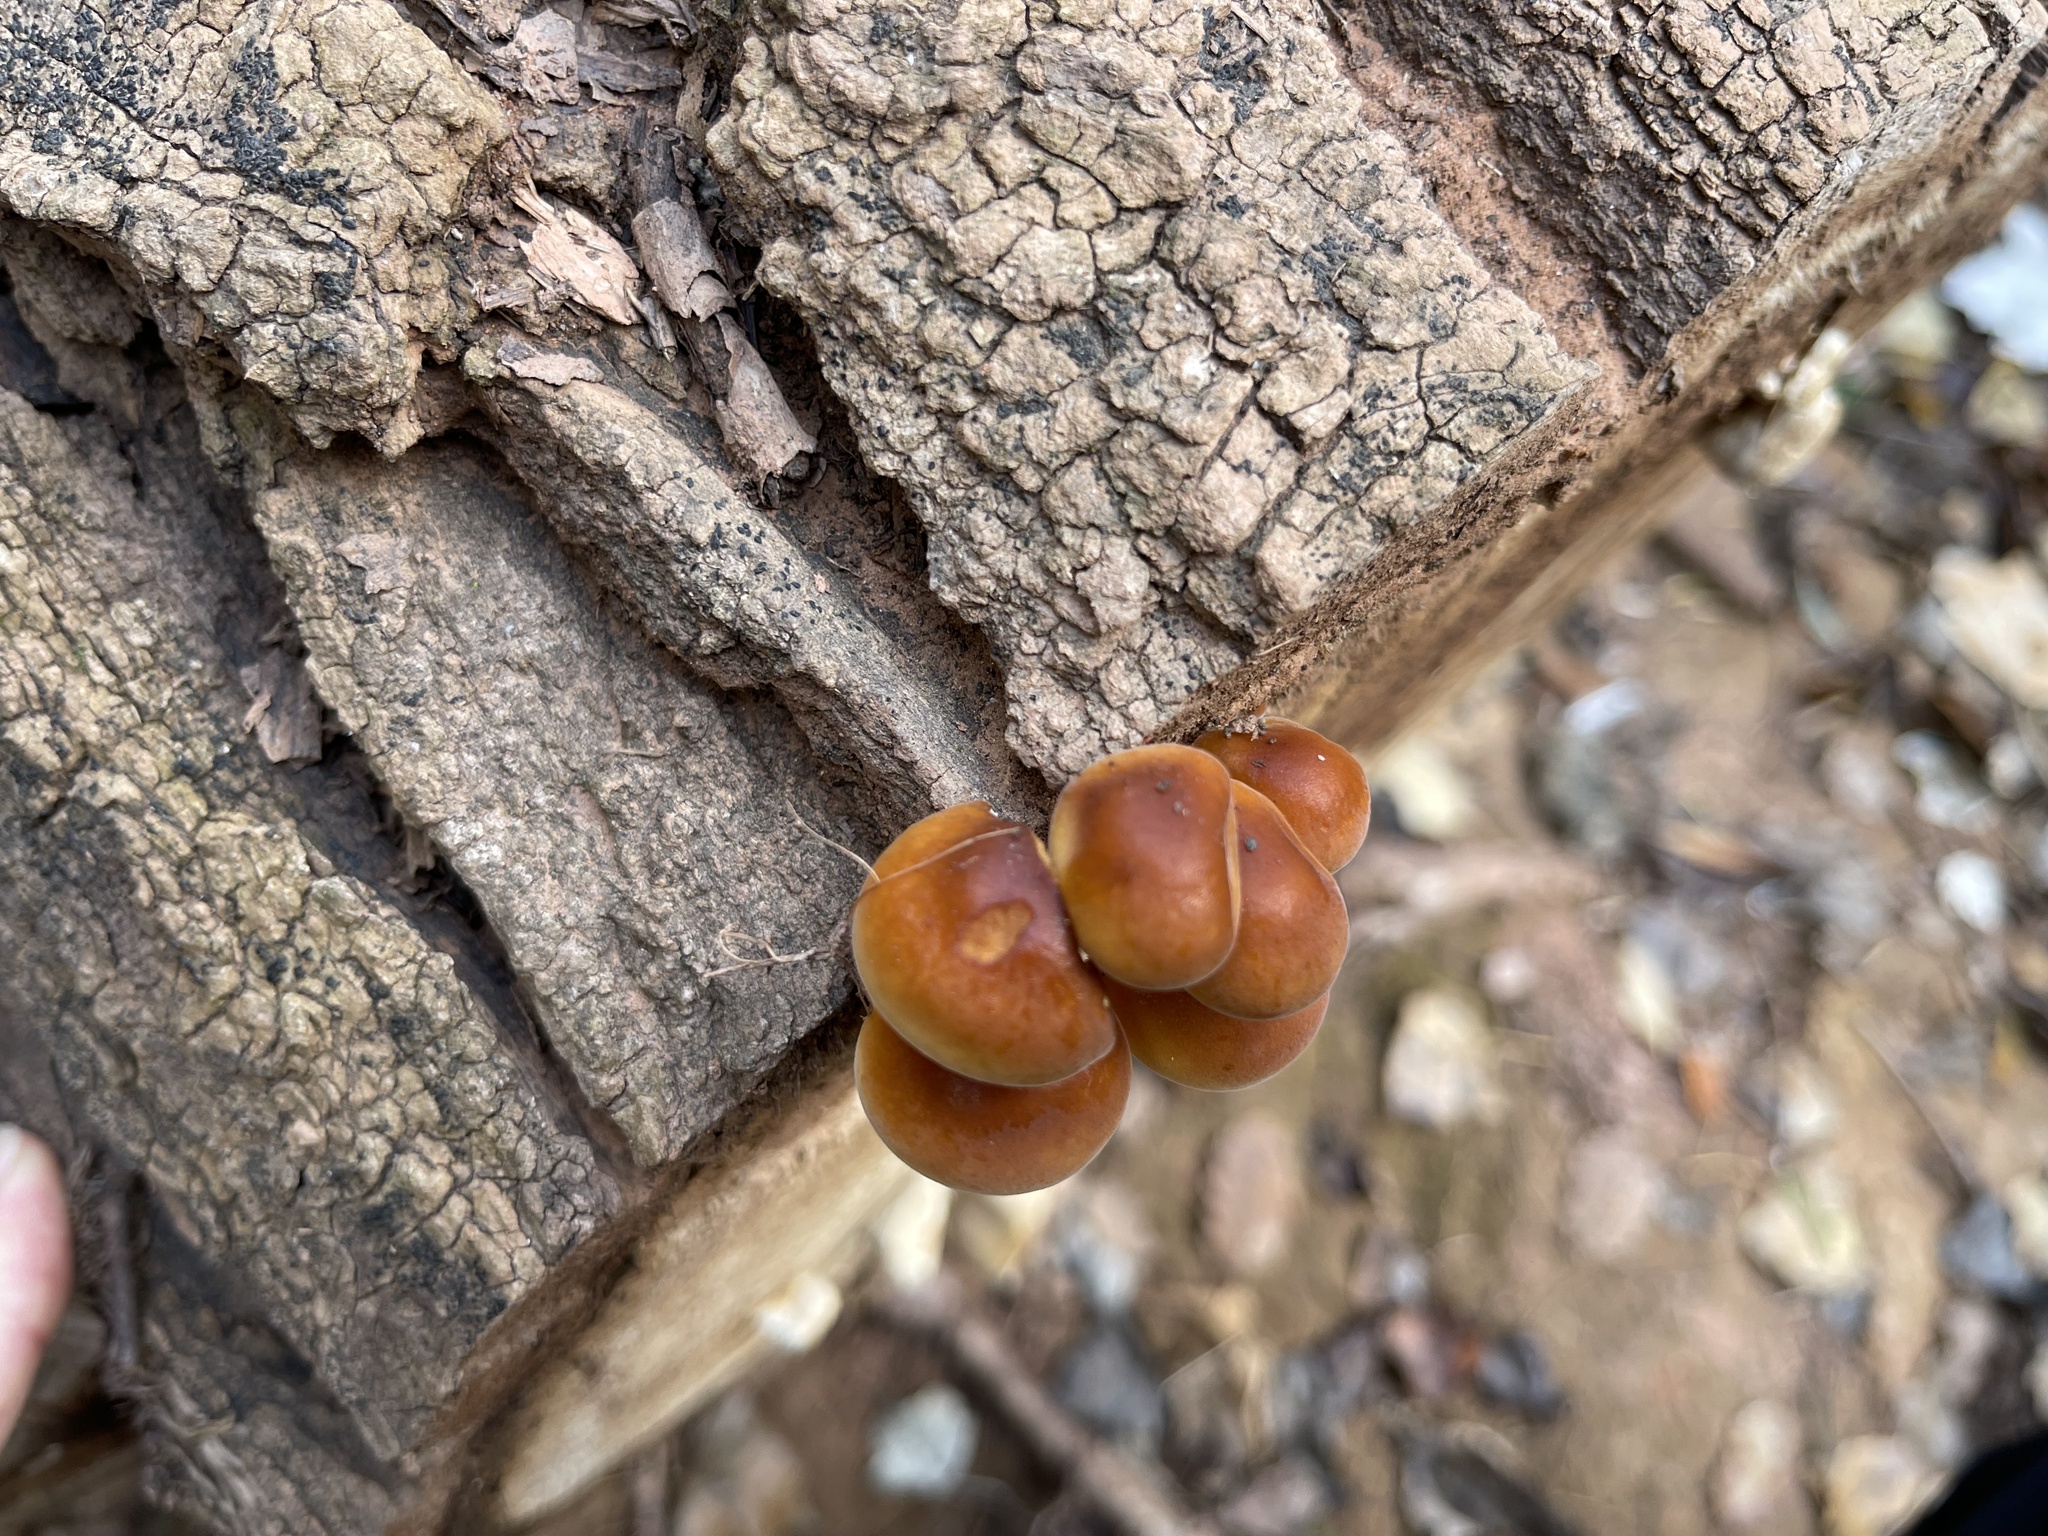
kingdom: Fungi
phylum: Basidiomycota
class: Agaricomycetes
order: Agaricales
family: Physalacriaceae
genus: Flammulina
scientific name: Flammulina
